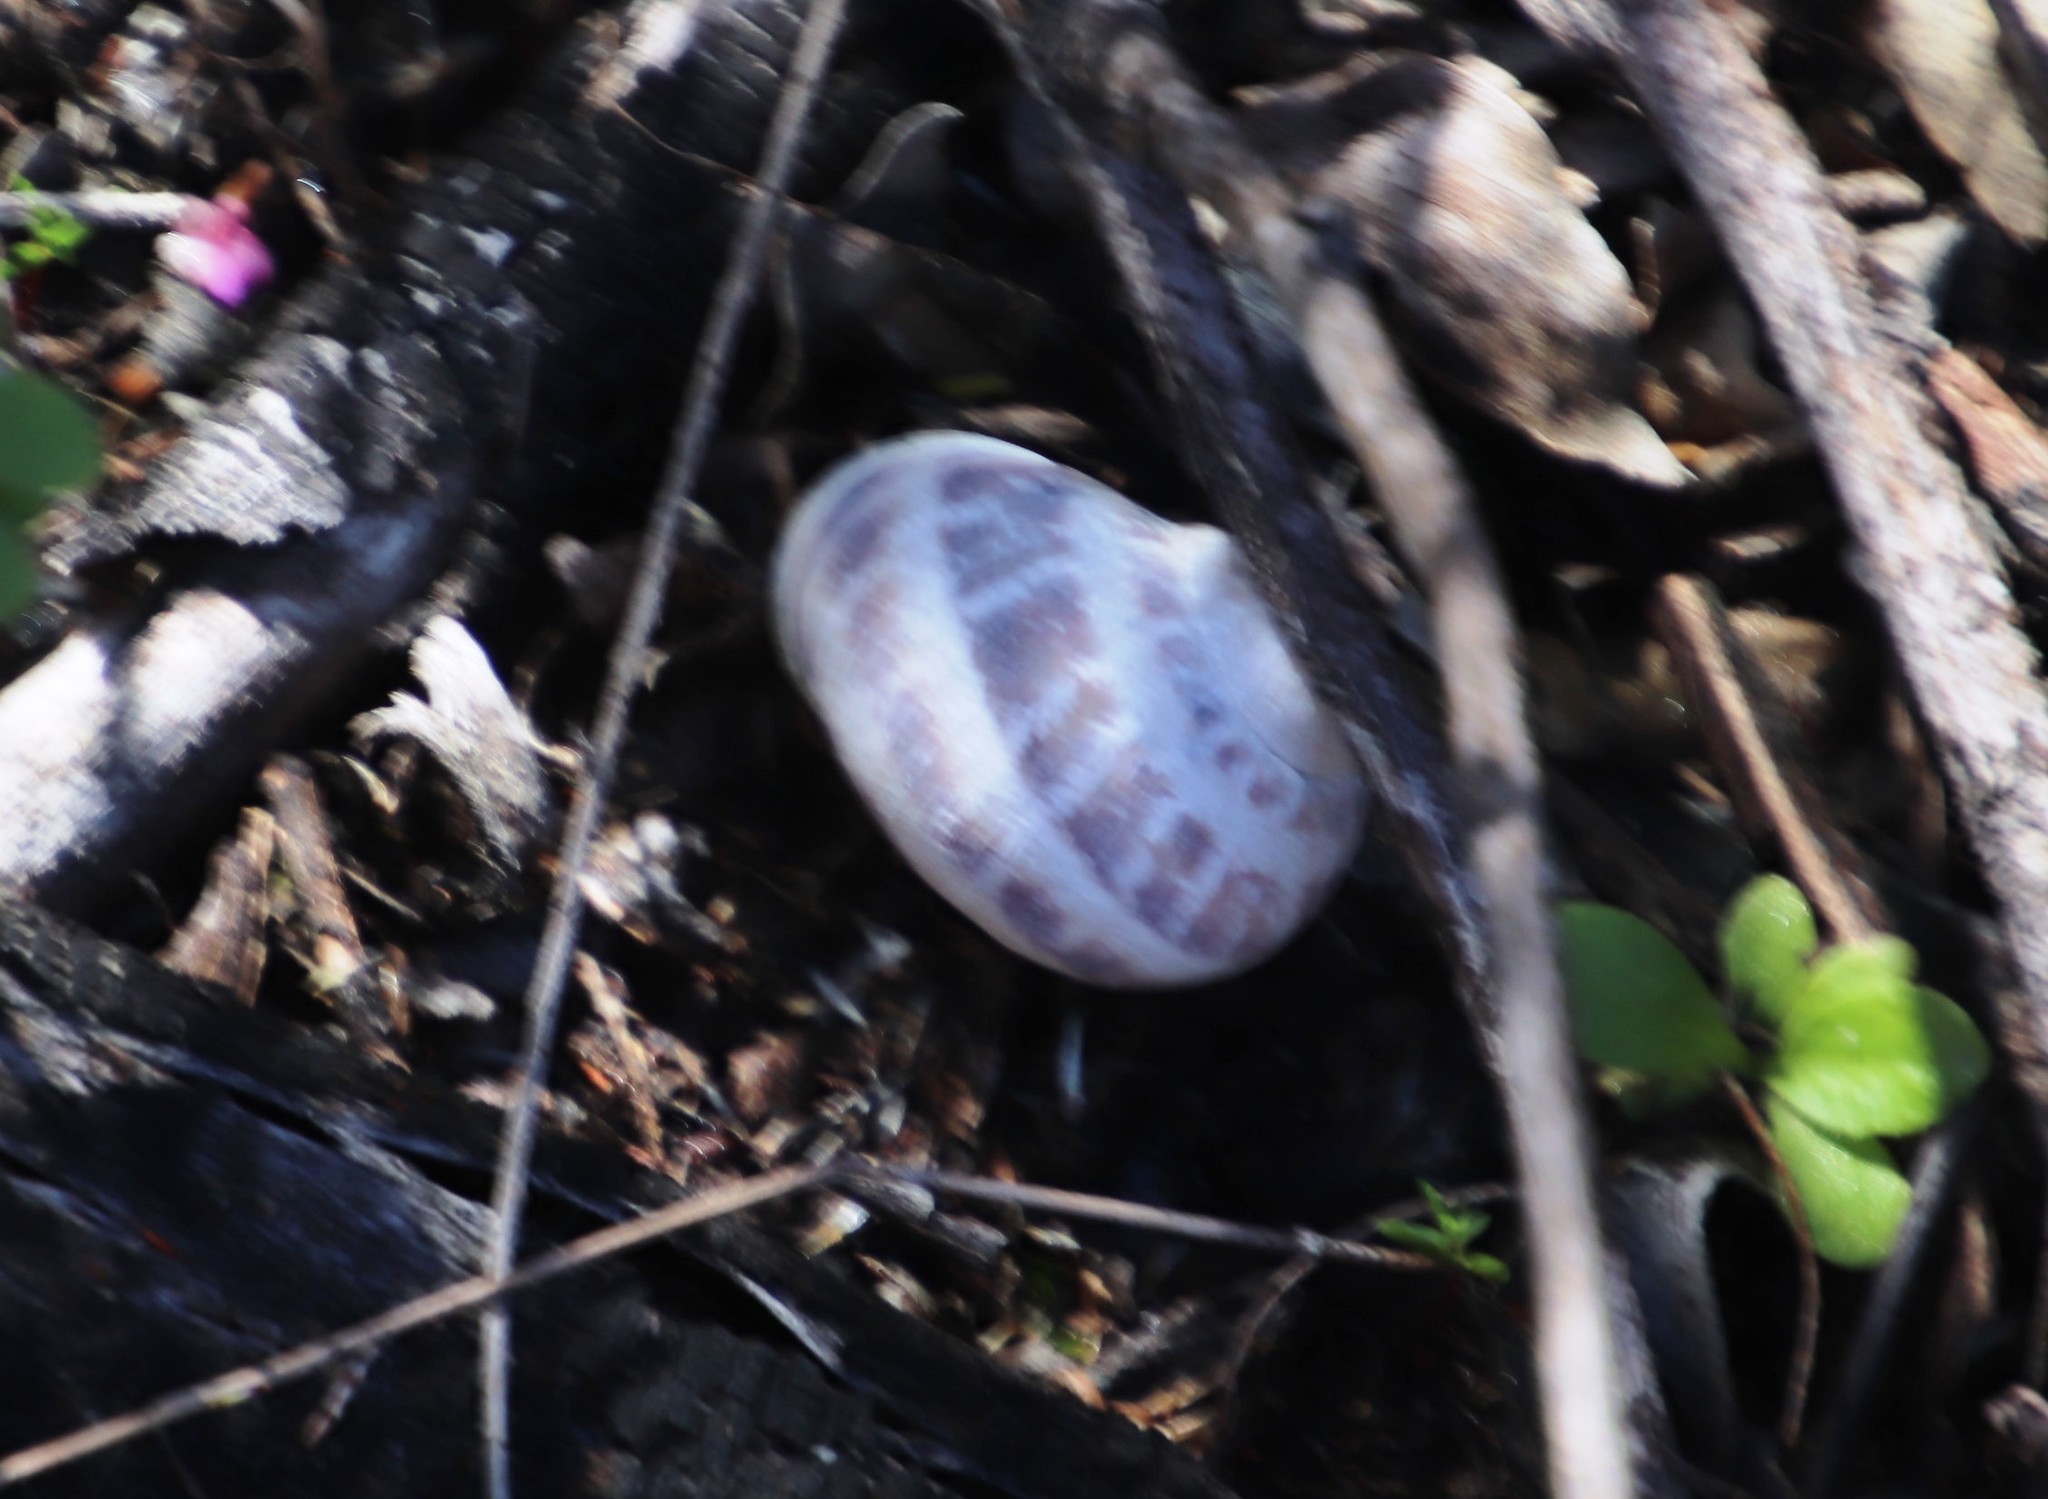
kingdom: Animalia
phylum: Mollusca
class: Gastropoda
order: Stylommatophora
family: Helicidae
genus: Cornu
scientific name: Cornu aspersum
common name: Brown garden snail
